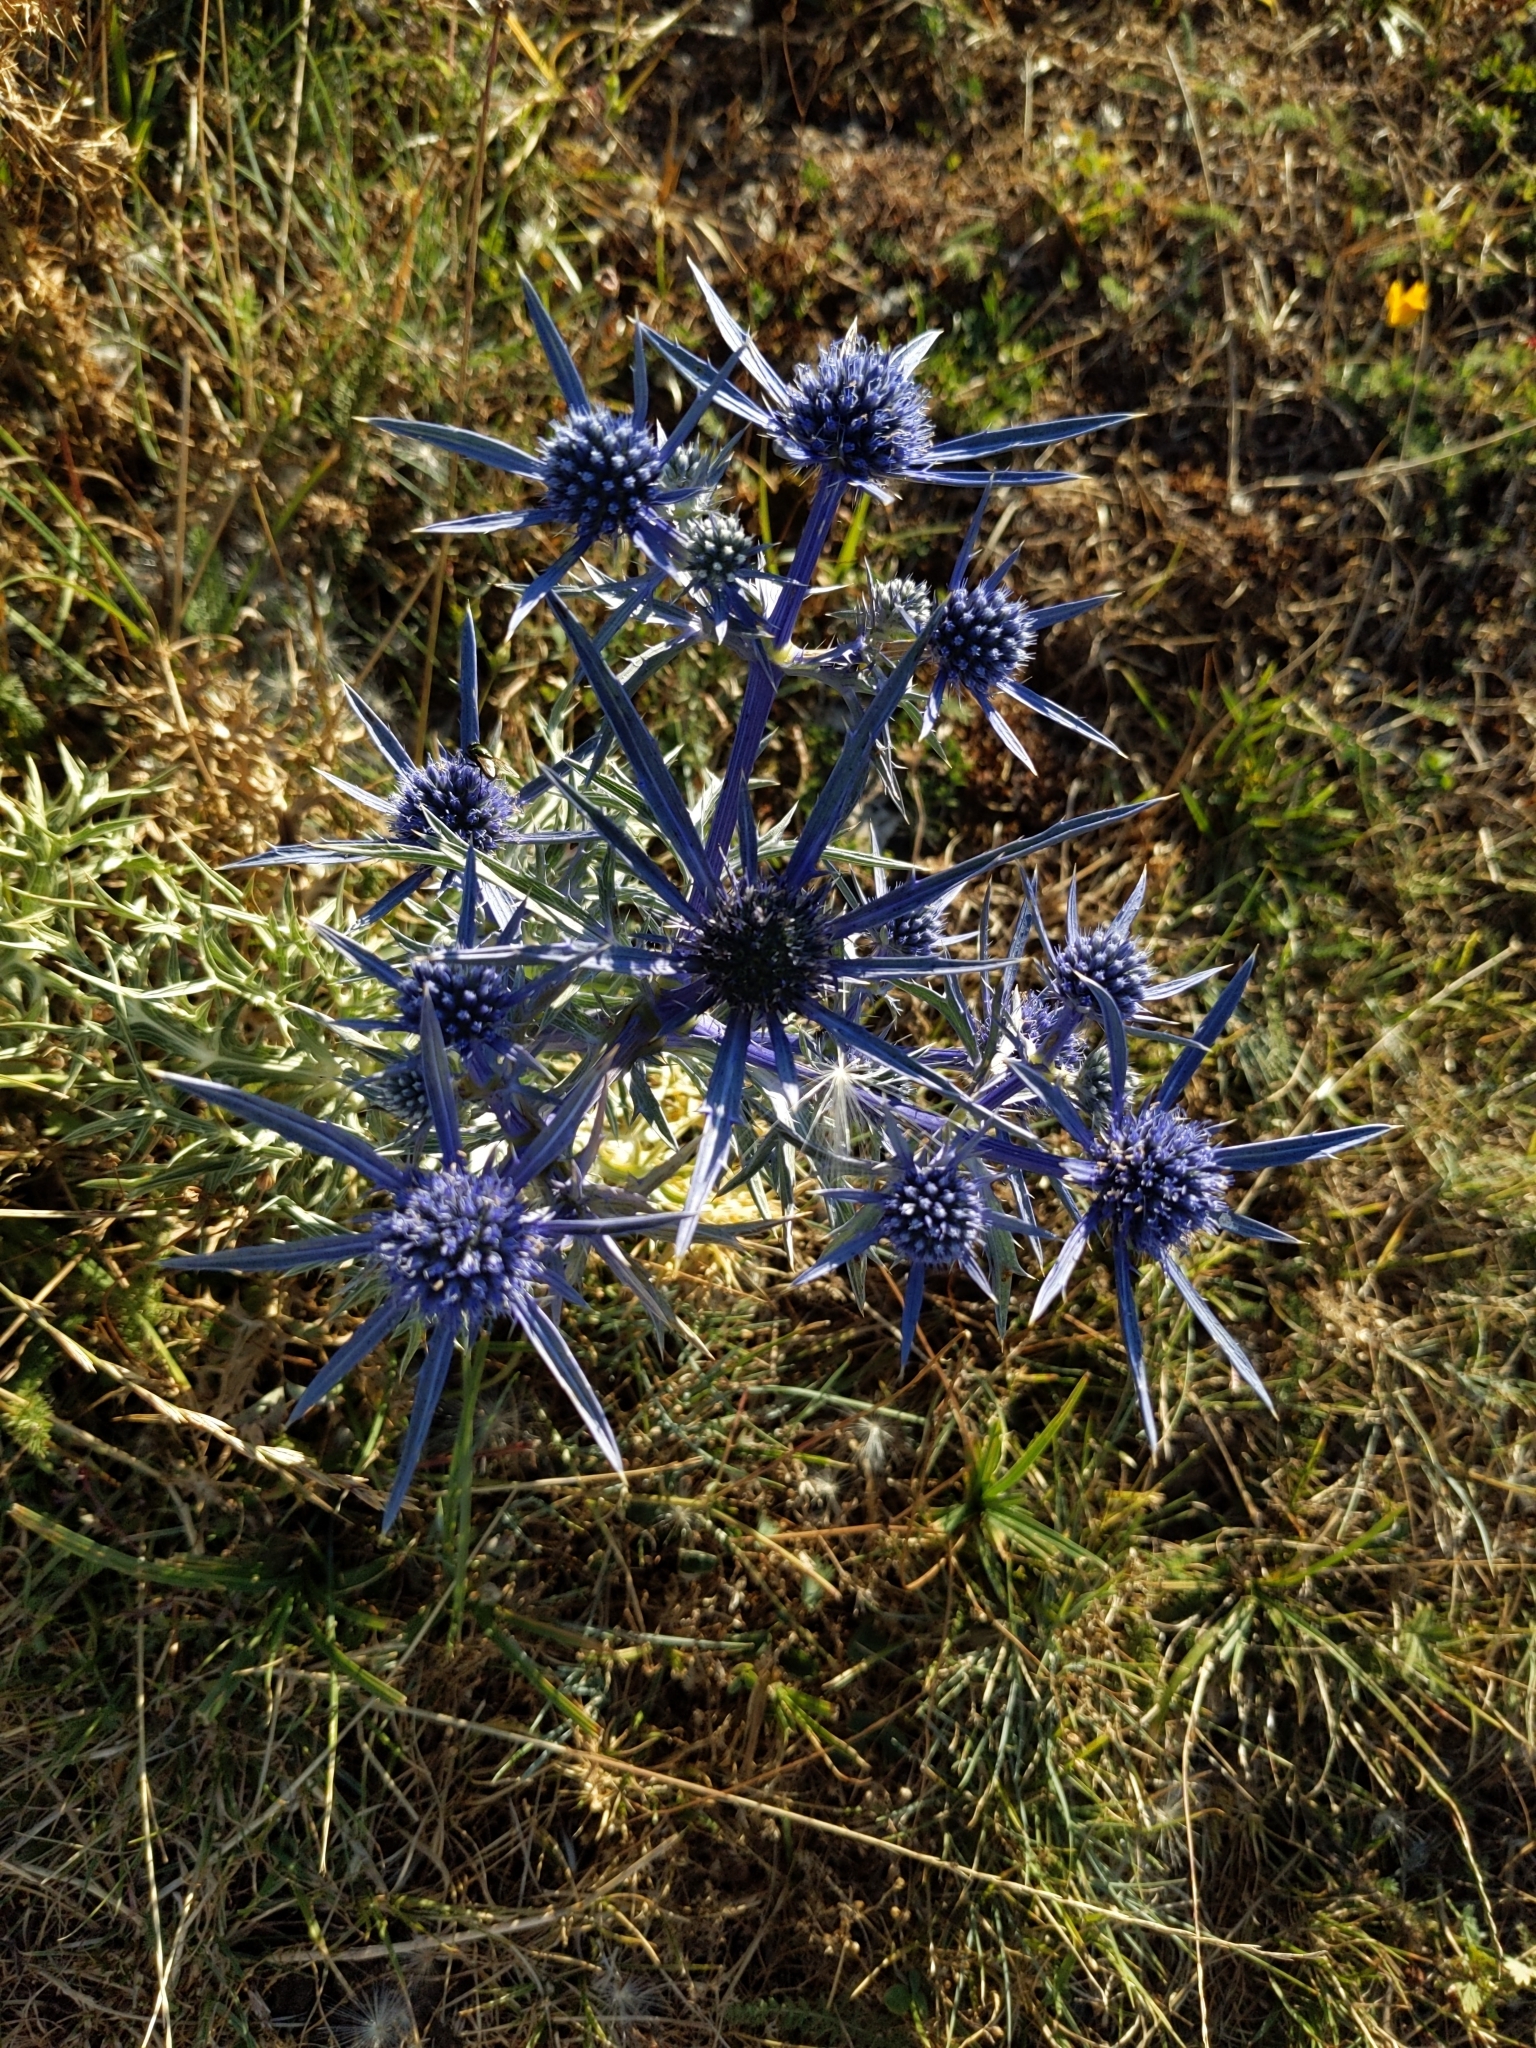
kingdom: Plantae
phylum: Tracheophyta
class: Magnoliopsida
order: Apiales
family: Apiaceae
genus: Eryngium
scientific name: Eryngium amethystinum
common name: Amethyst eryngo
